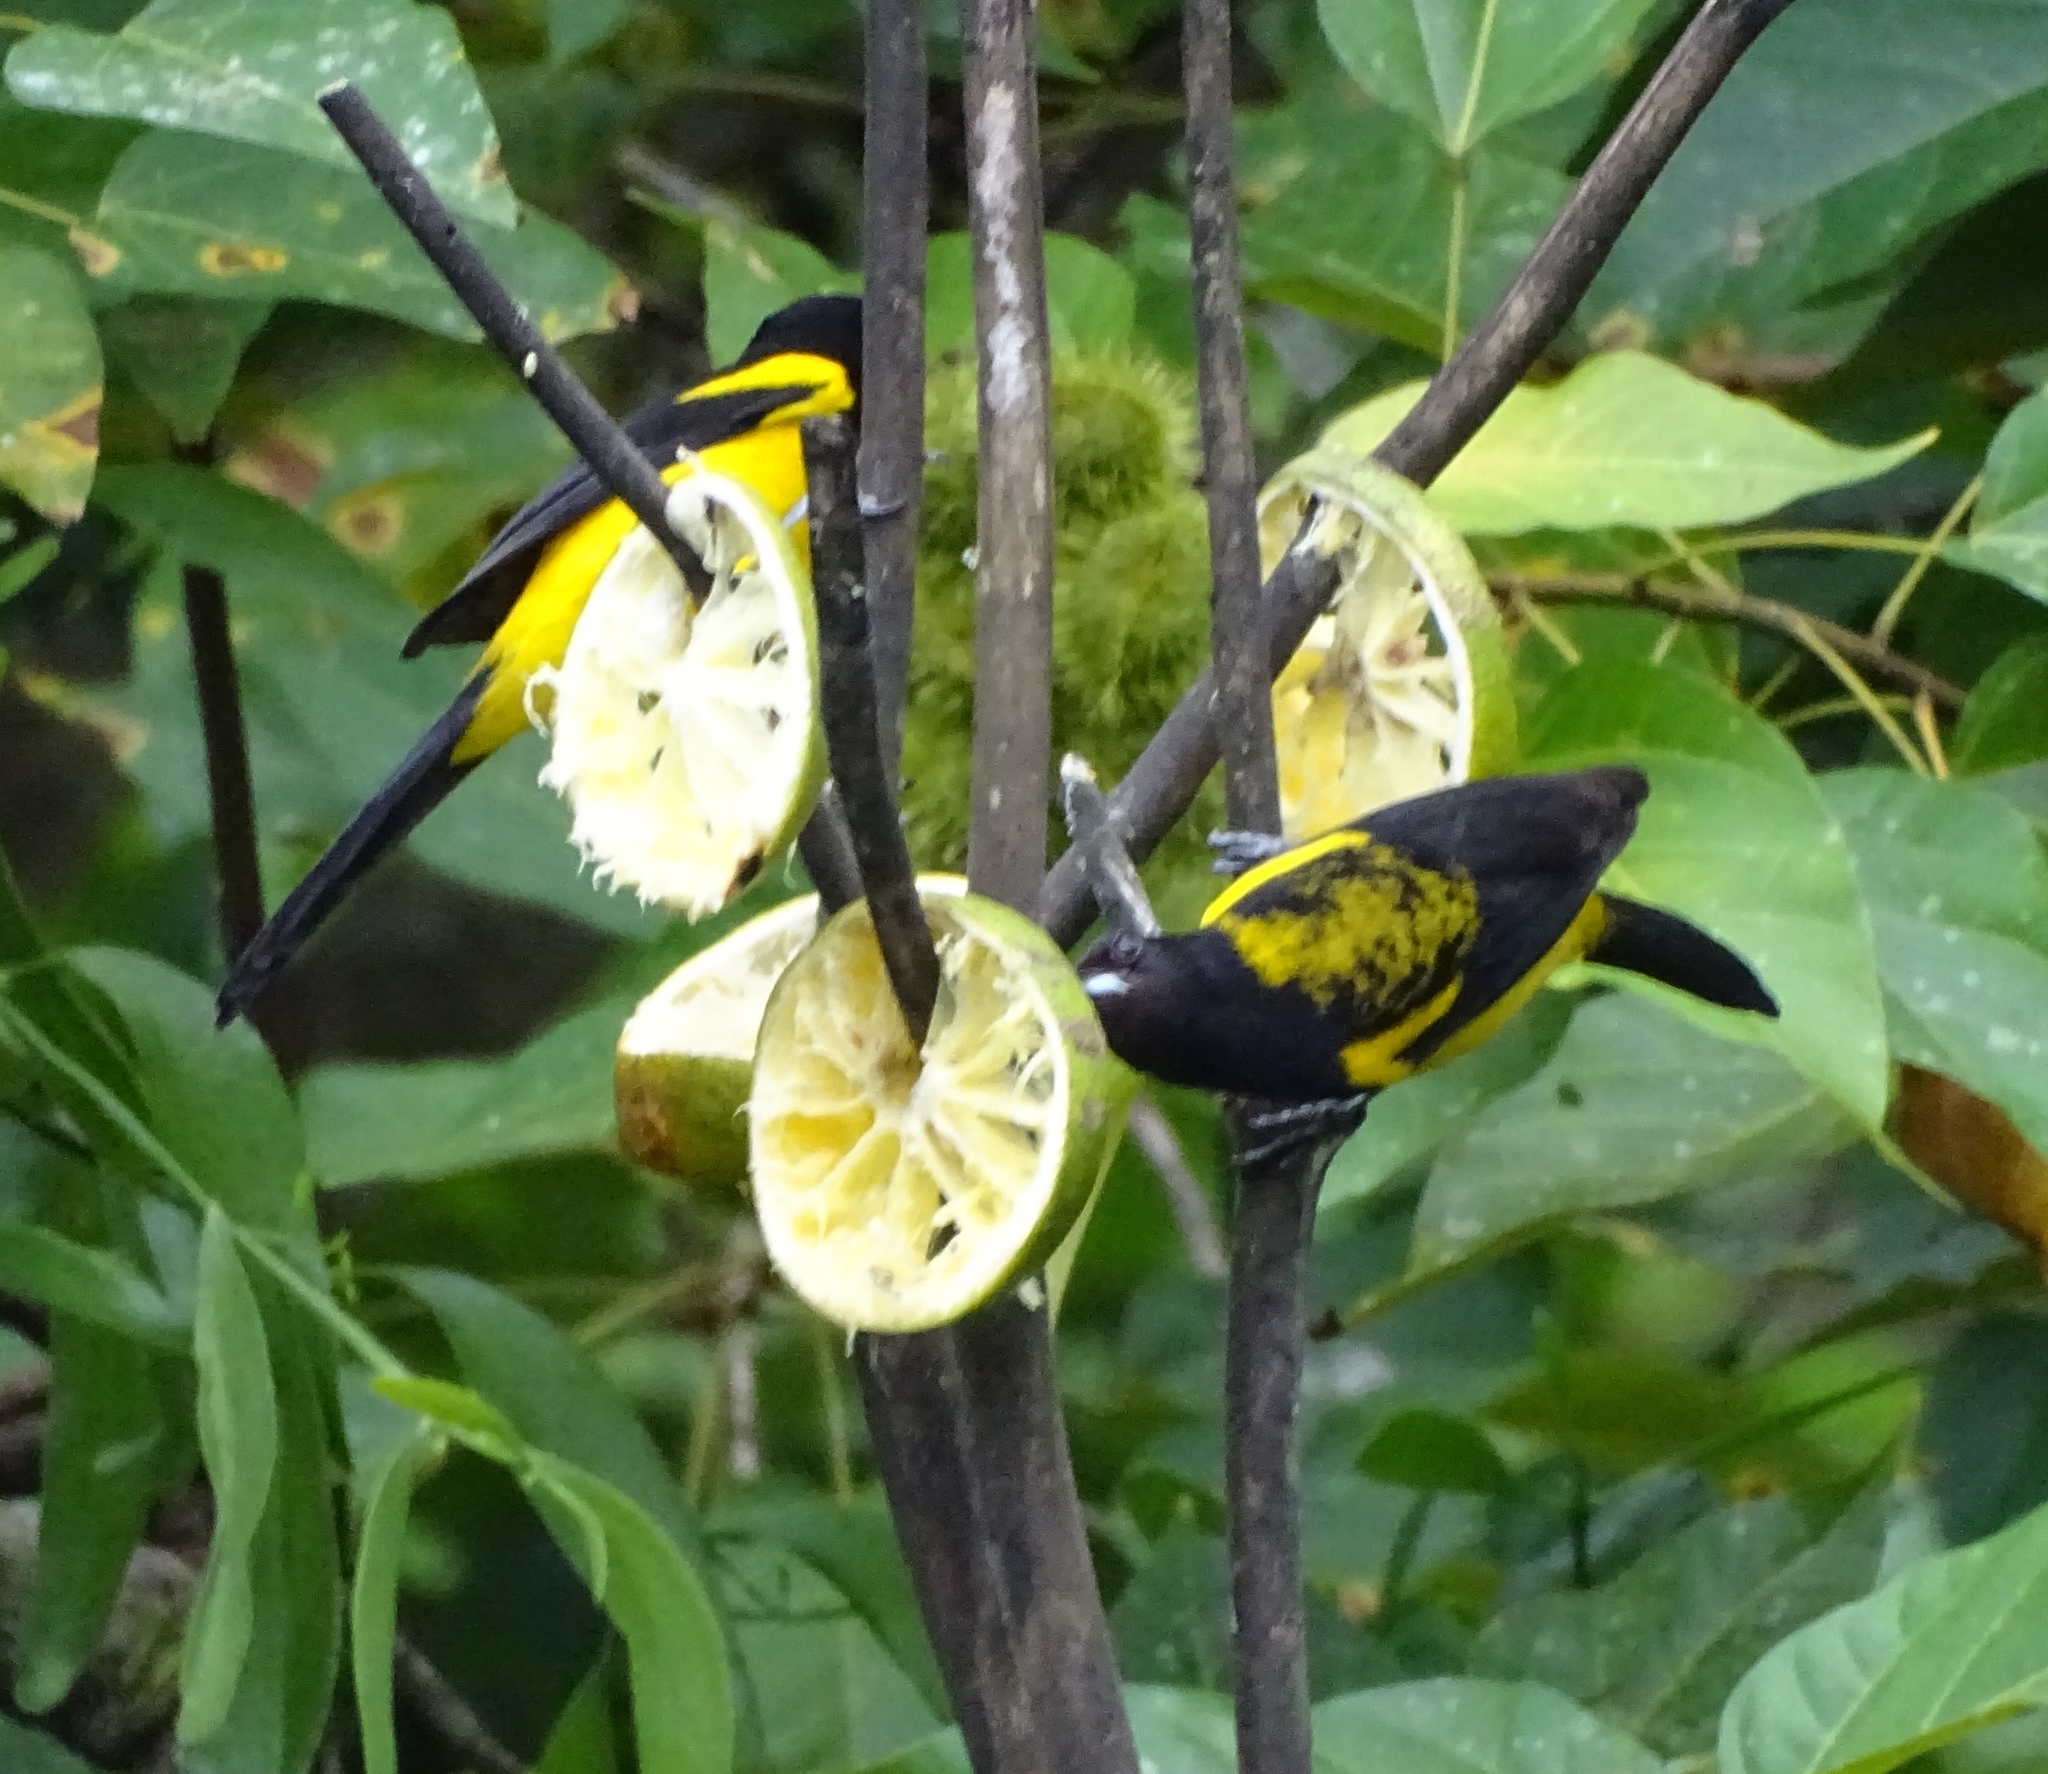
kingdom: Animalia
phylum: Chordata
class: Aves
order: Passeriformes
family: Icteridae
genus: Icterus
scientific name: Icterus prosthemelas
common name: Black-cowled oriole
